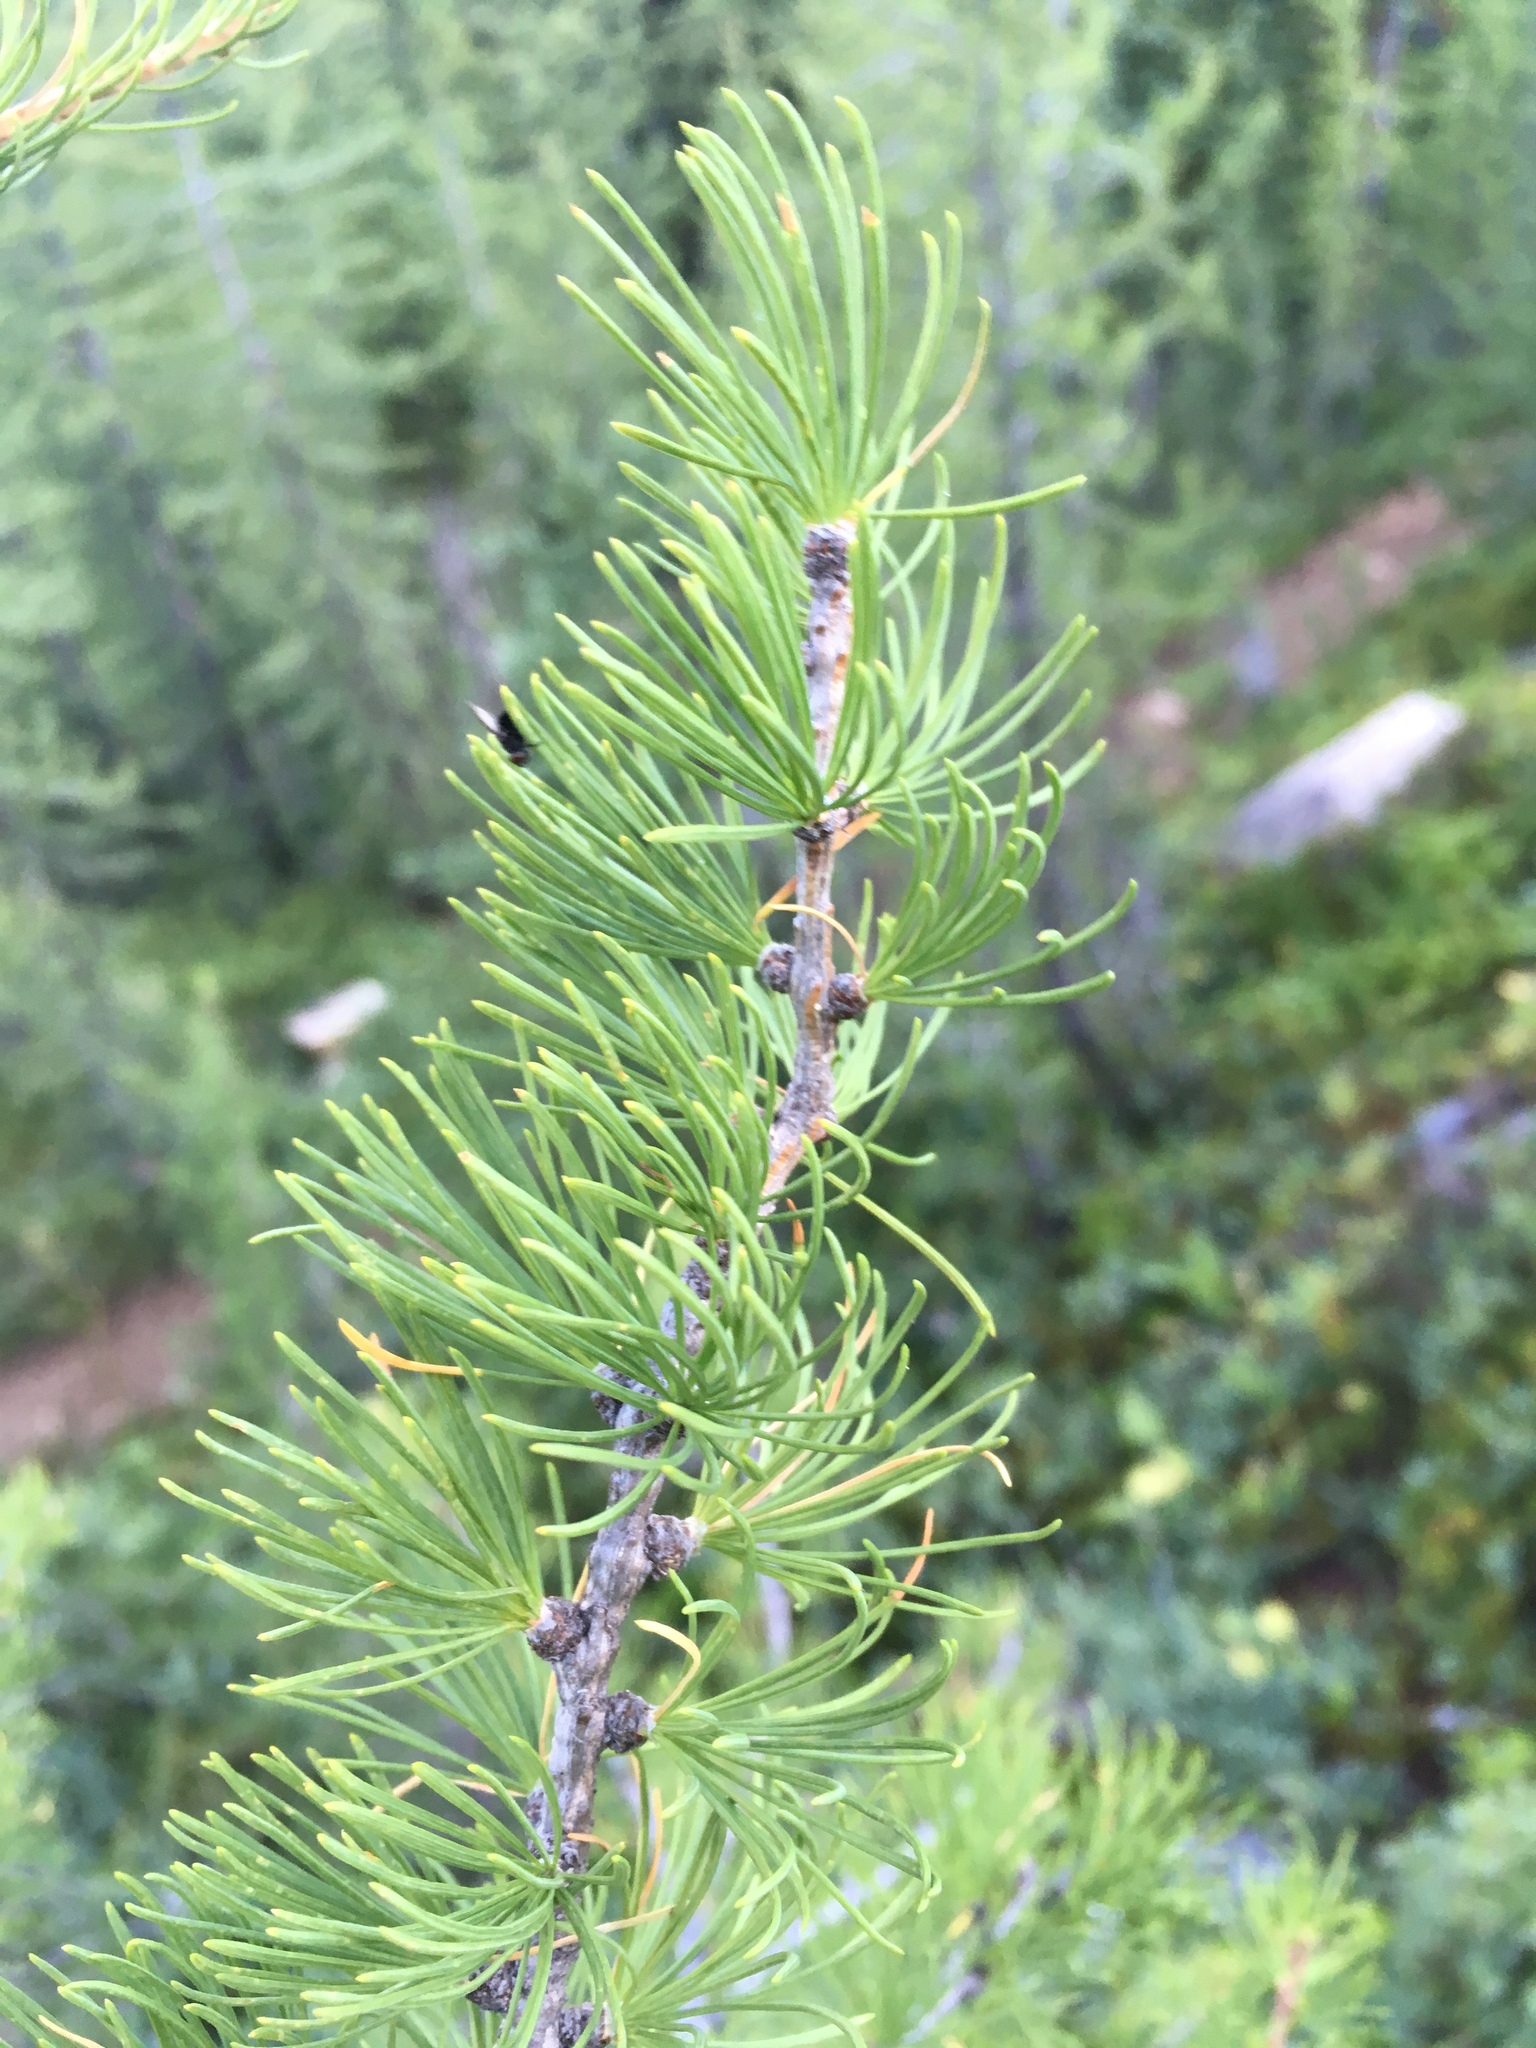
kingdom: Plantae
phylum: Tracheophyta
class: Pinopsida
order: Pinales
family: Pinaceae
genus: Larix
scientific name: Larix lyallii
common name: Alpine larch
